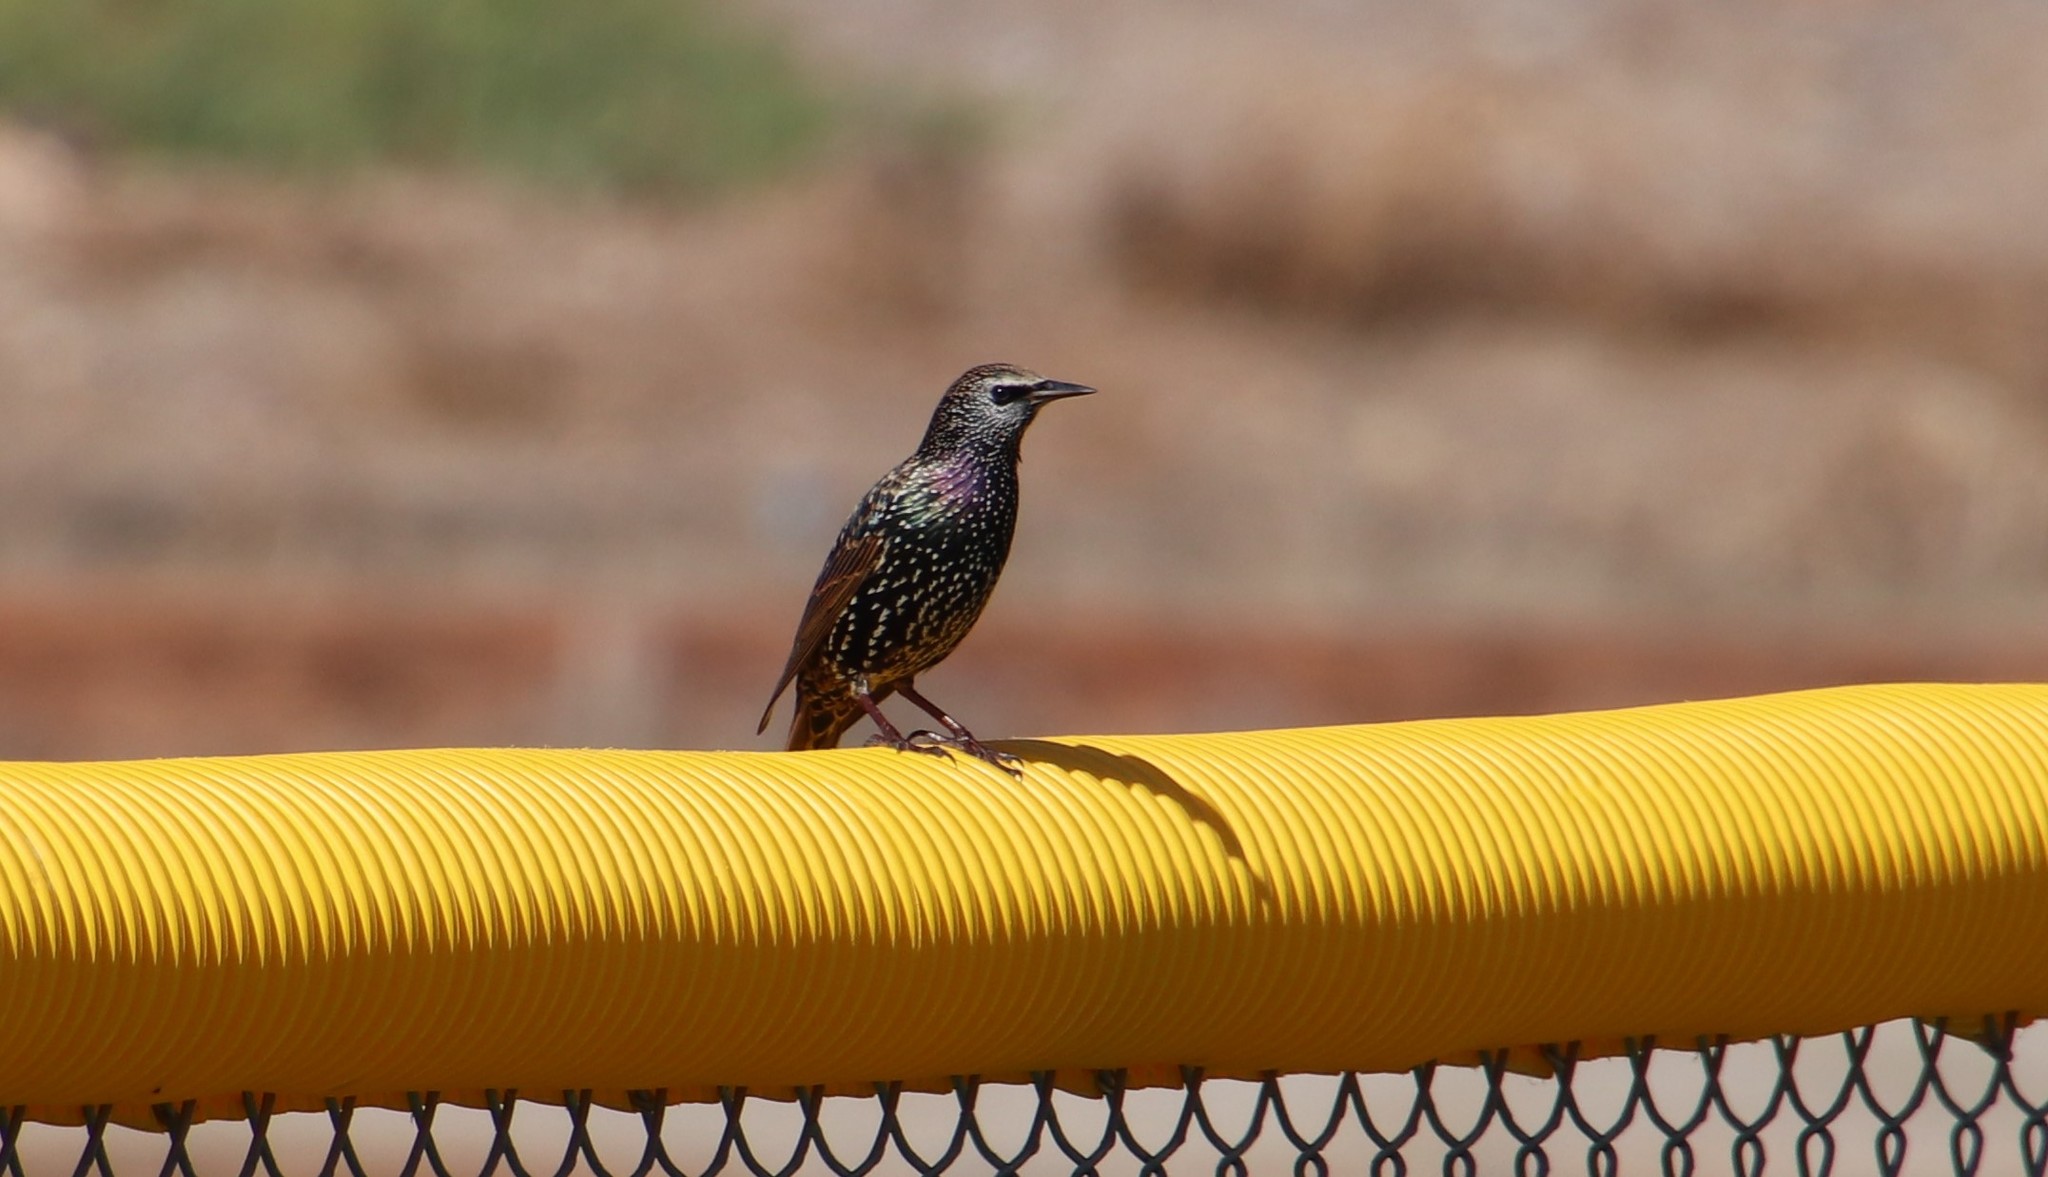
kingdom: Animalia
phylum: Chordata
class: Aves
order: Passeriformes
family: Sturnidae
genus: Sturnus
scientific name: Sturnus vulgaris
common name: Common starling
